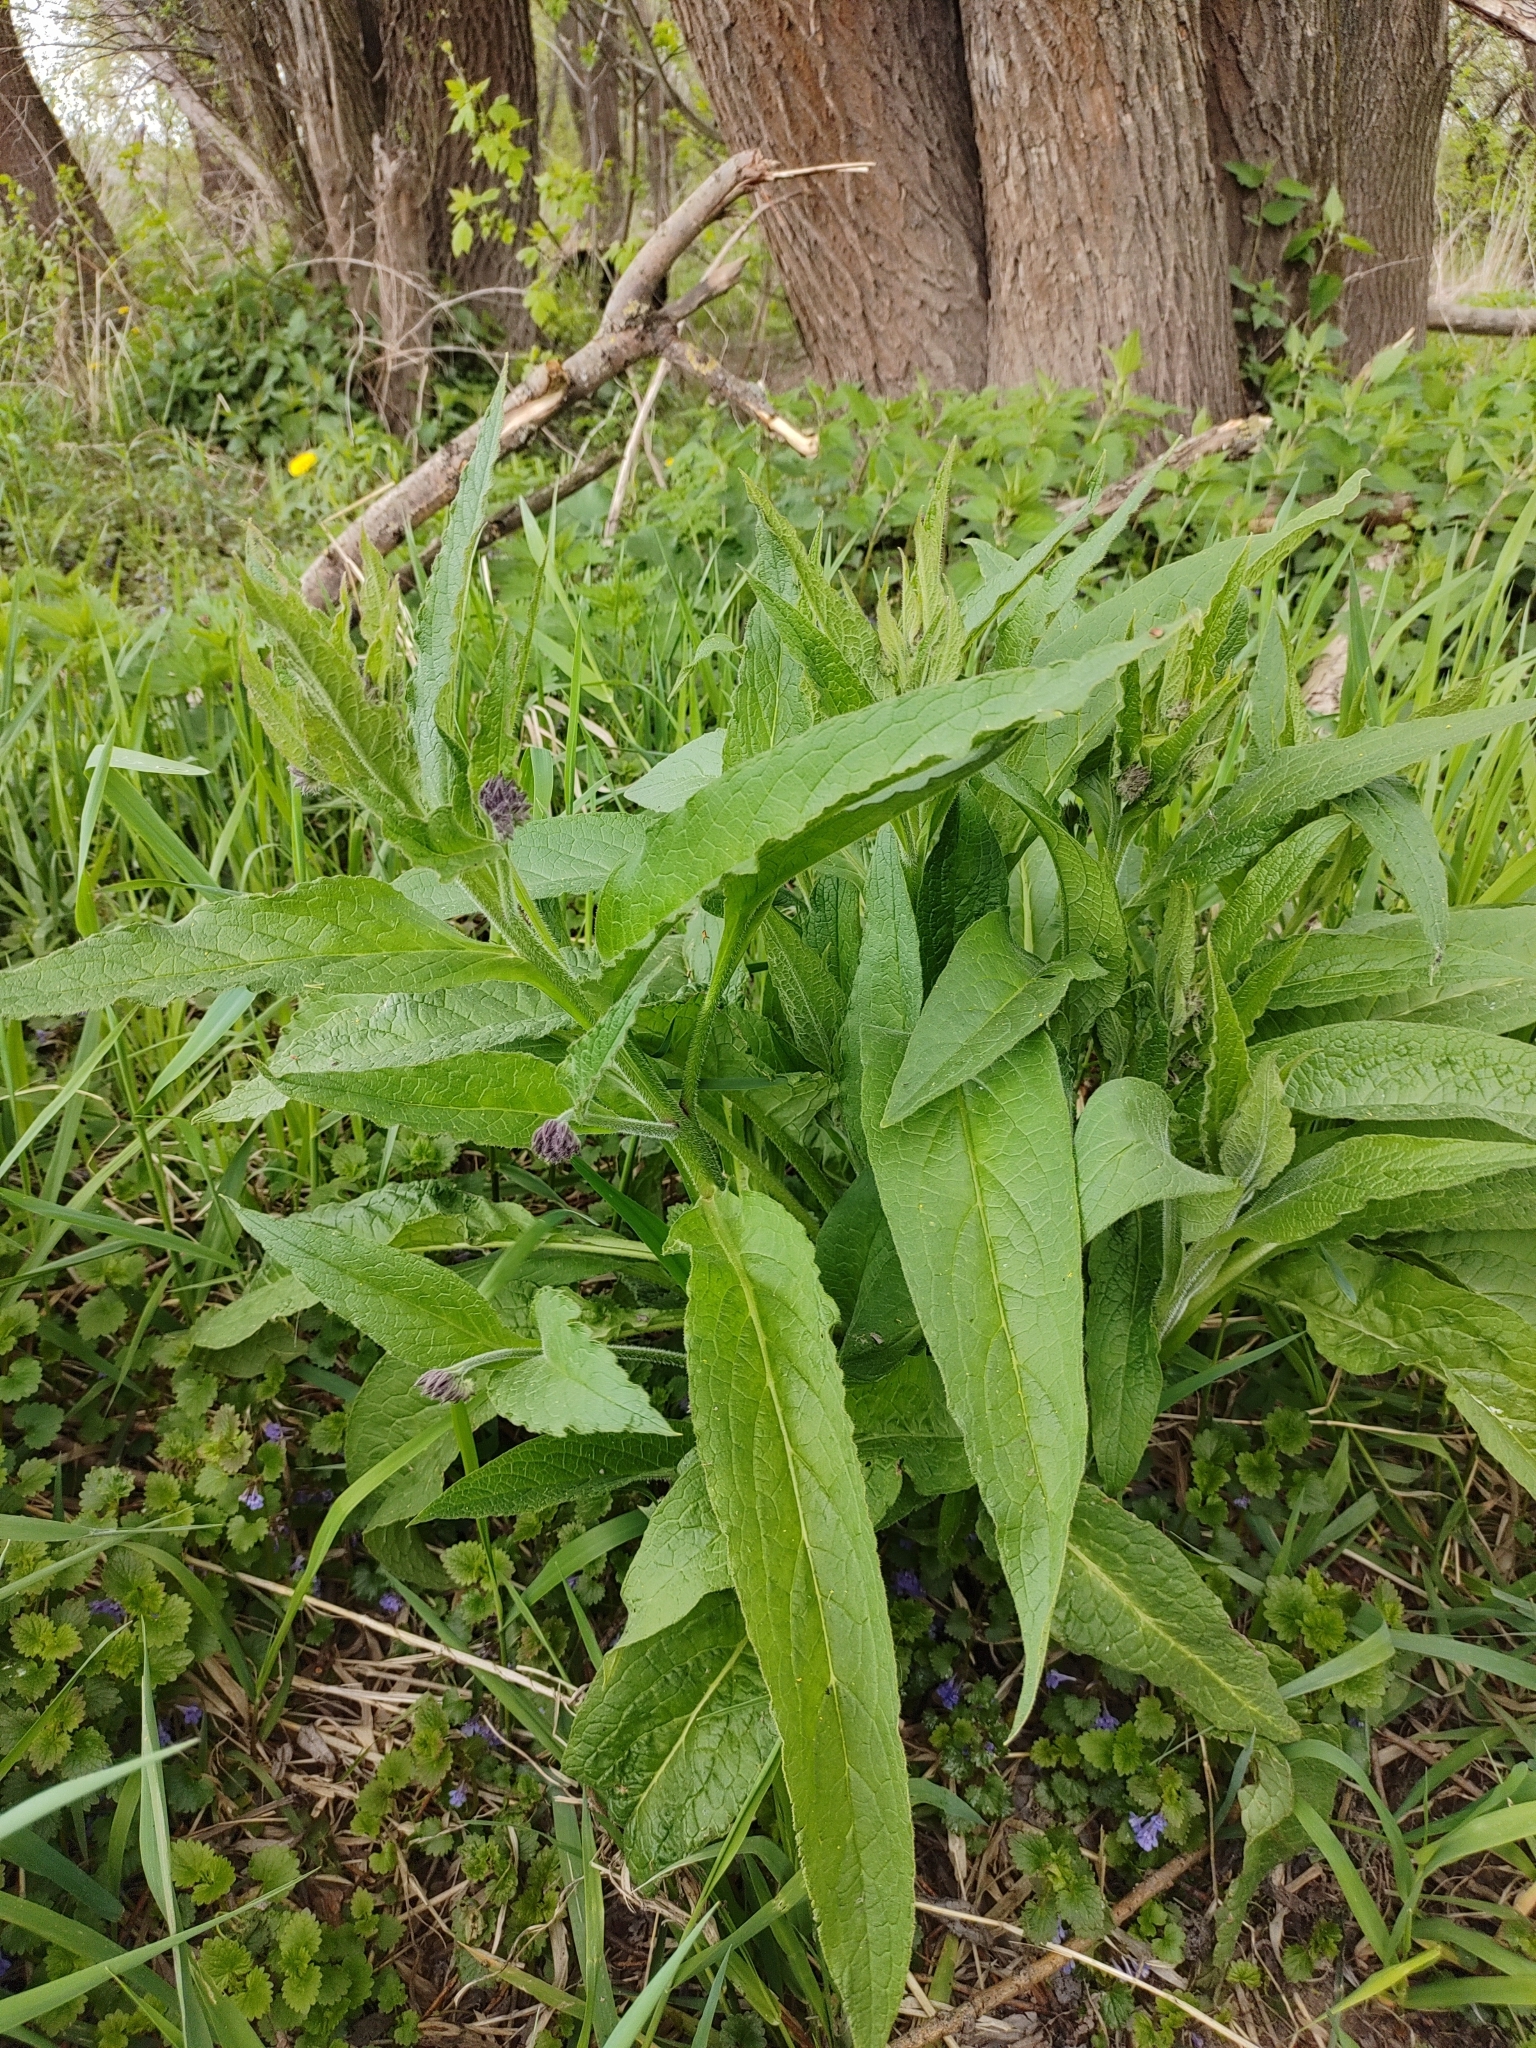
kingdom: Plantae
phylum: Tracheophyta
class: Magnoliopsida
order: Boraginales
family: Boraginaceae
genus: Symphytum
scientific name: Symphytum officinale
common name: Common comfrey
